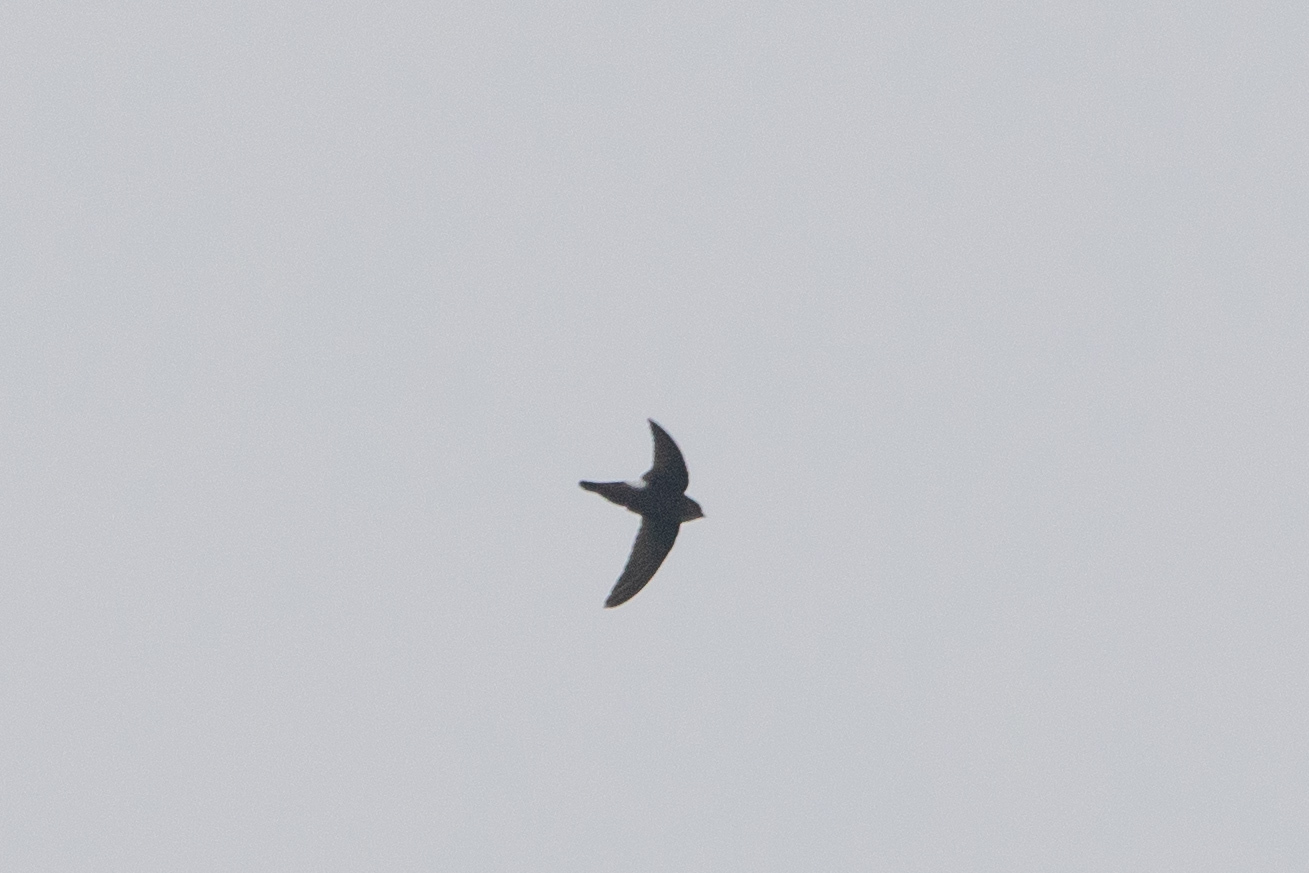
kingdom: Animalia
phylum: Chordata
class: Aves
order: Apodiformes
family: Apodidae
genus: Apus
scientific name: Apus nipalensis
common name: House swift
